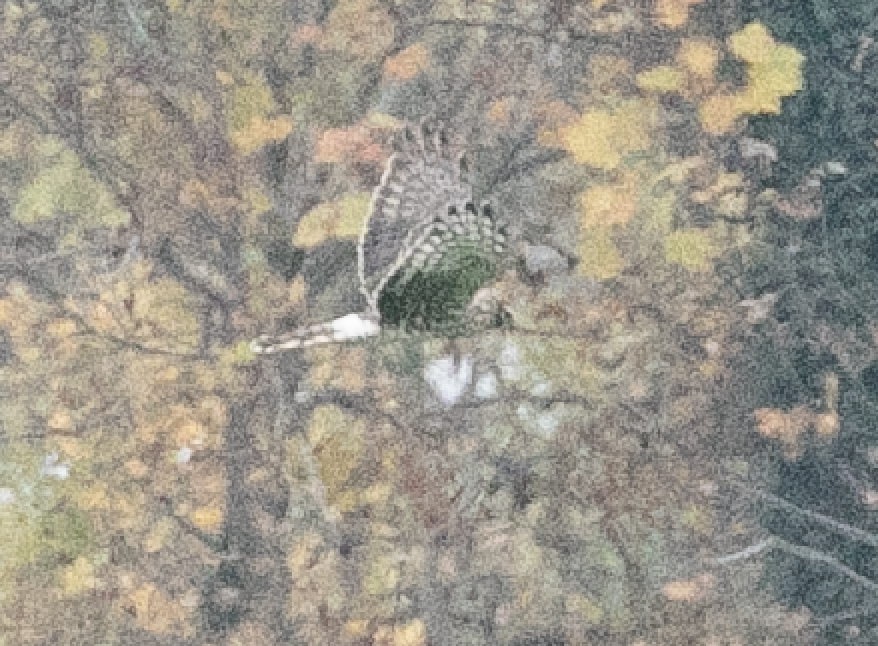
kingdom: Animalia
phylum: Chordata
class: Aves
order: Accipitriformes
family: Accipitridae
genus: Circus
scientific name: Circus cyaneus
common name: Hen harrier
